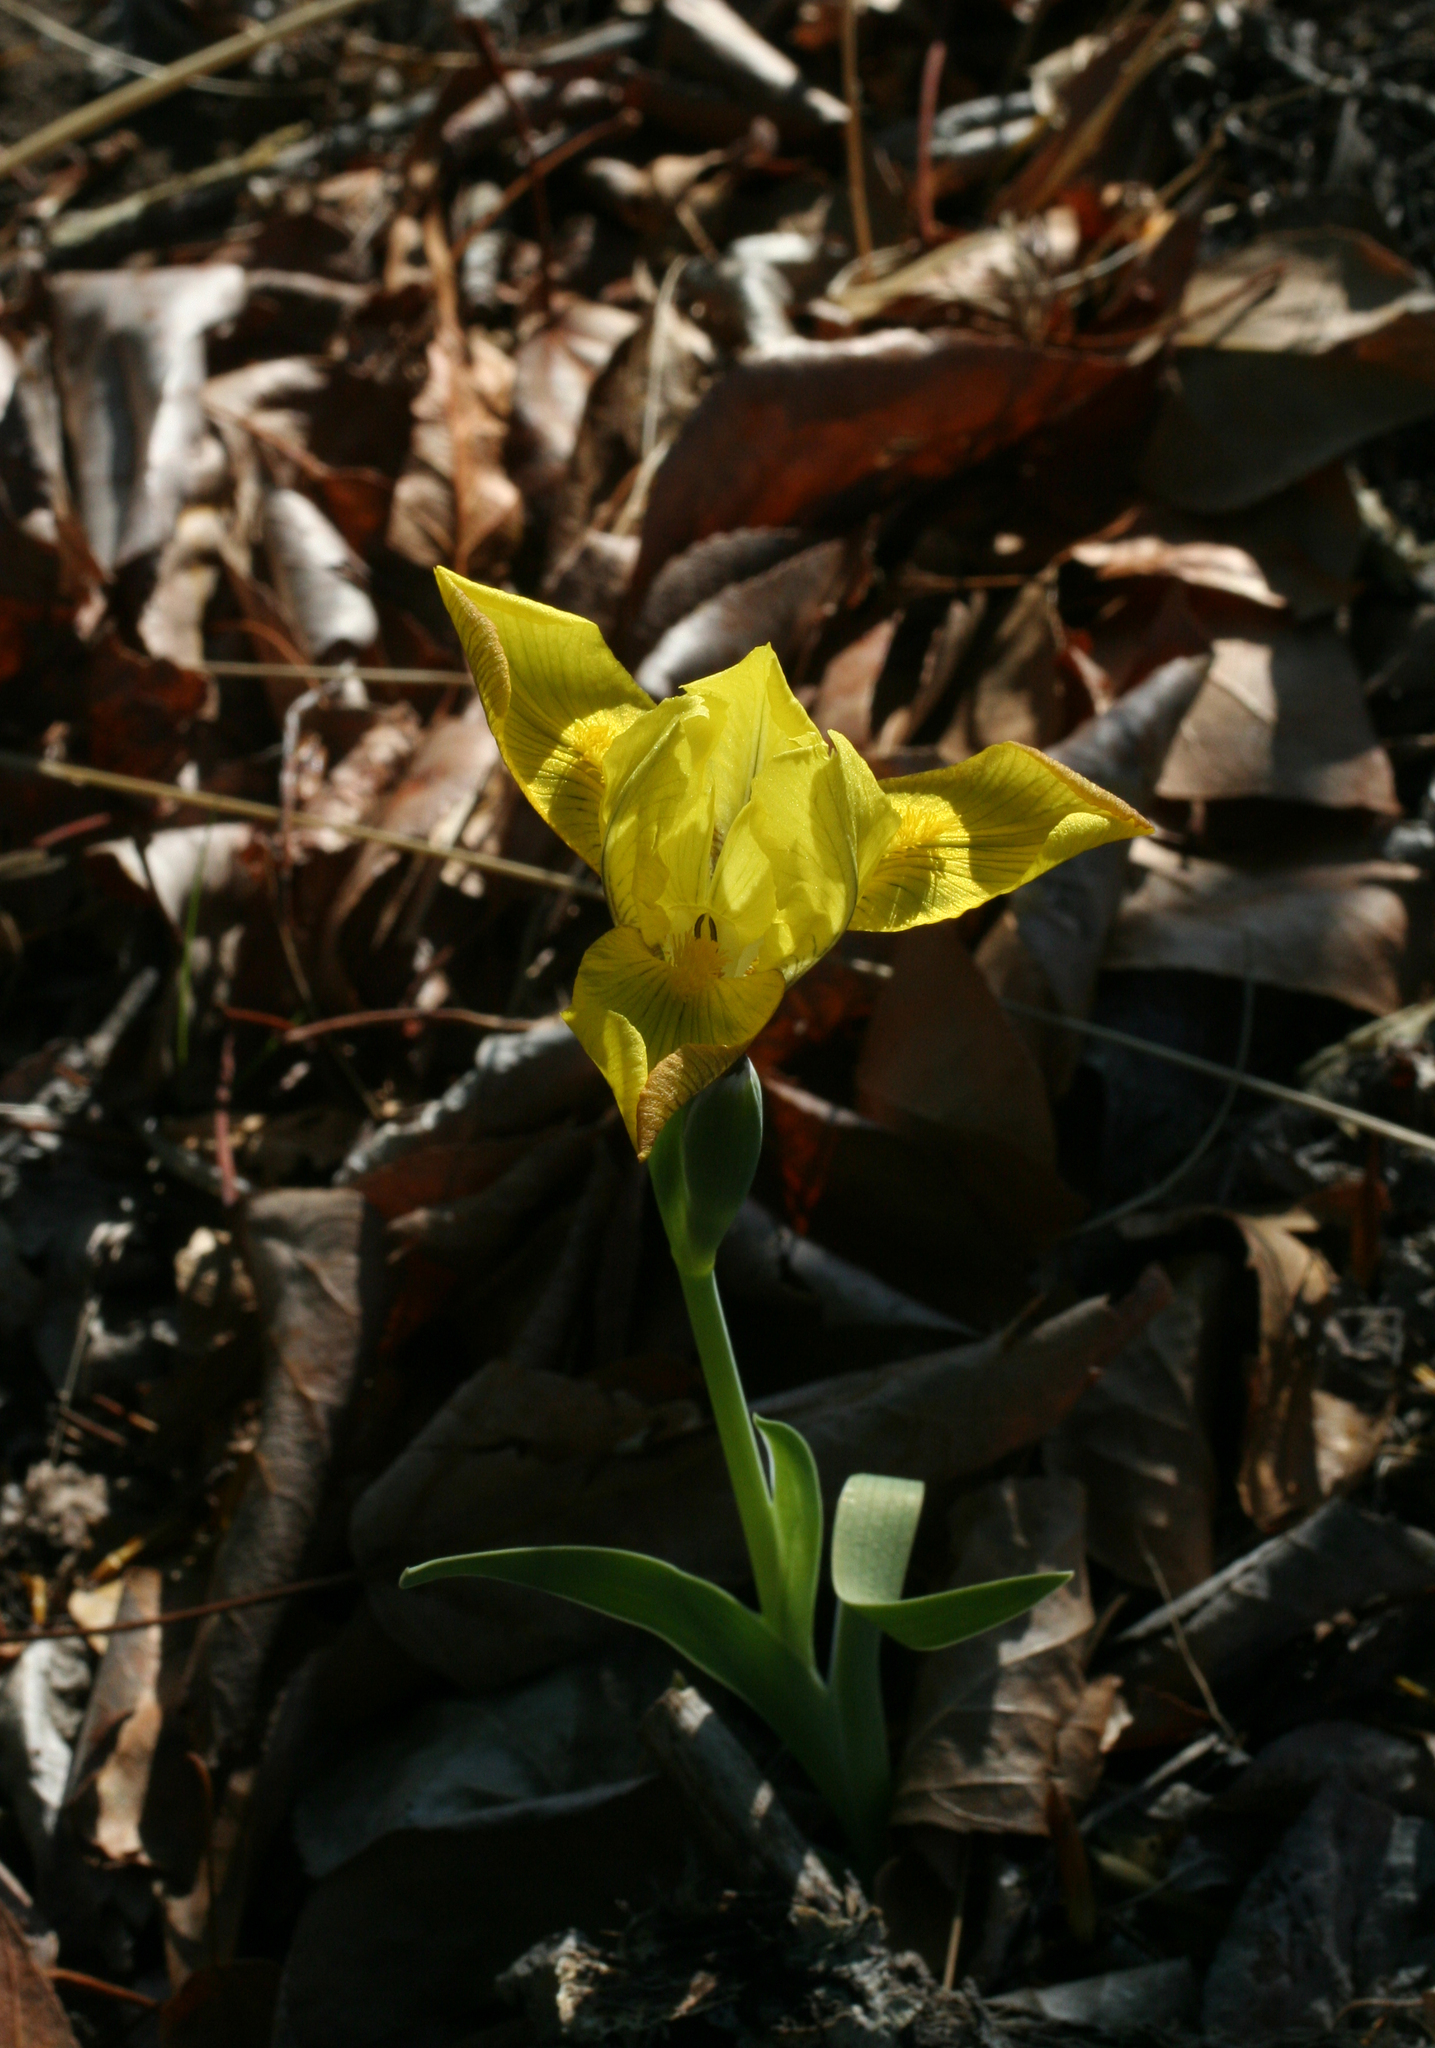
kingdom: Plantae
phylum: Tracheophyta
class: Liliopsida
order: Asparagales
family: Iridaceae
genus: Iris
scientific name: Iris humilis
